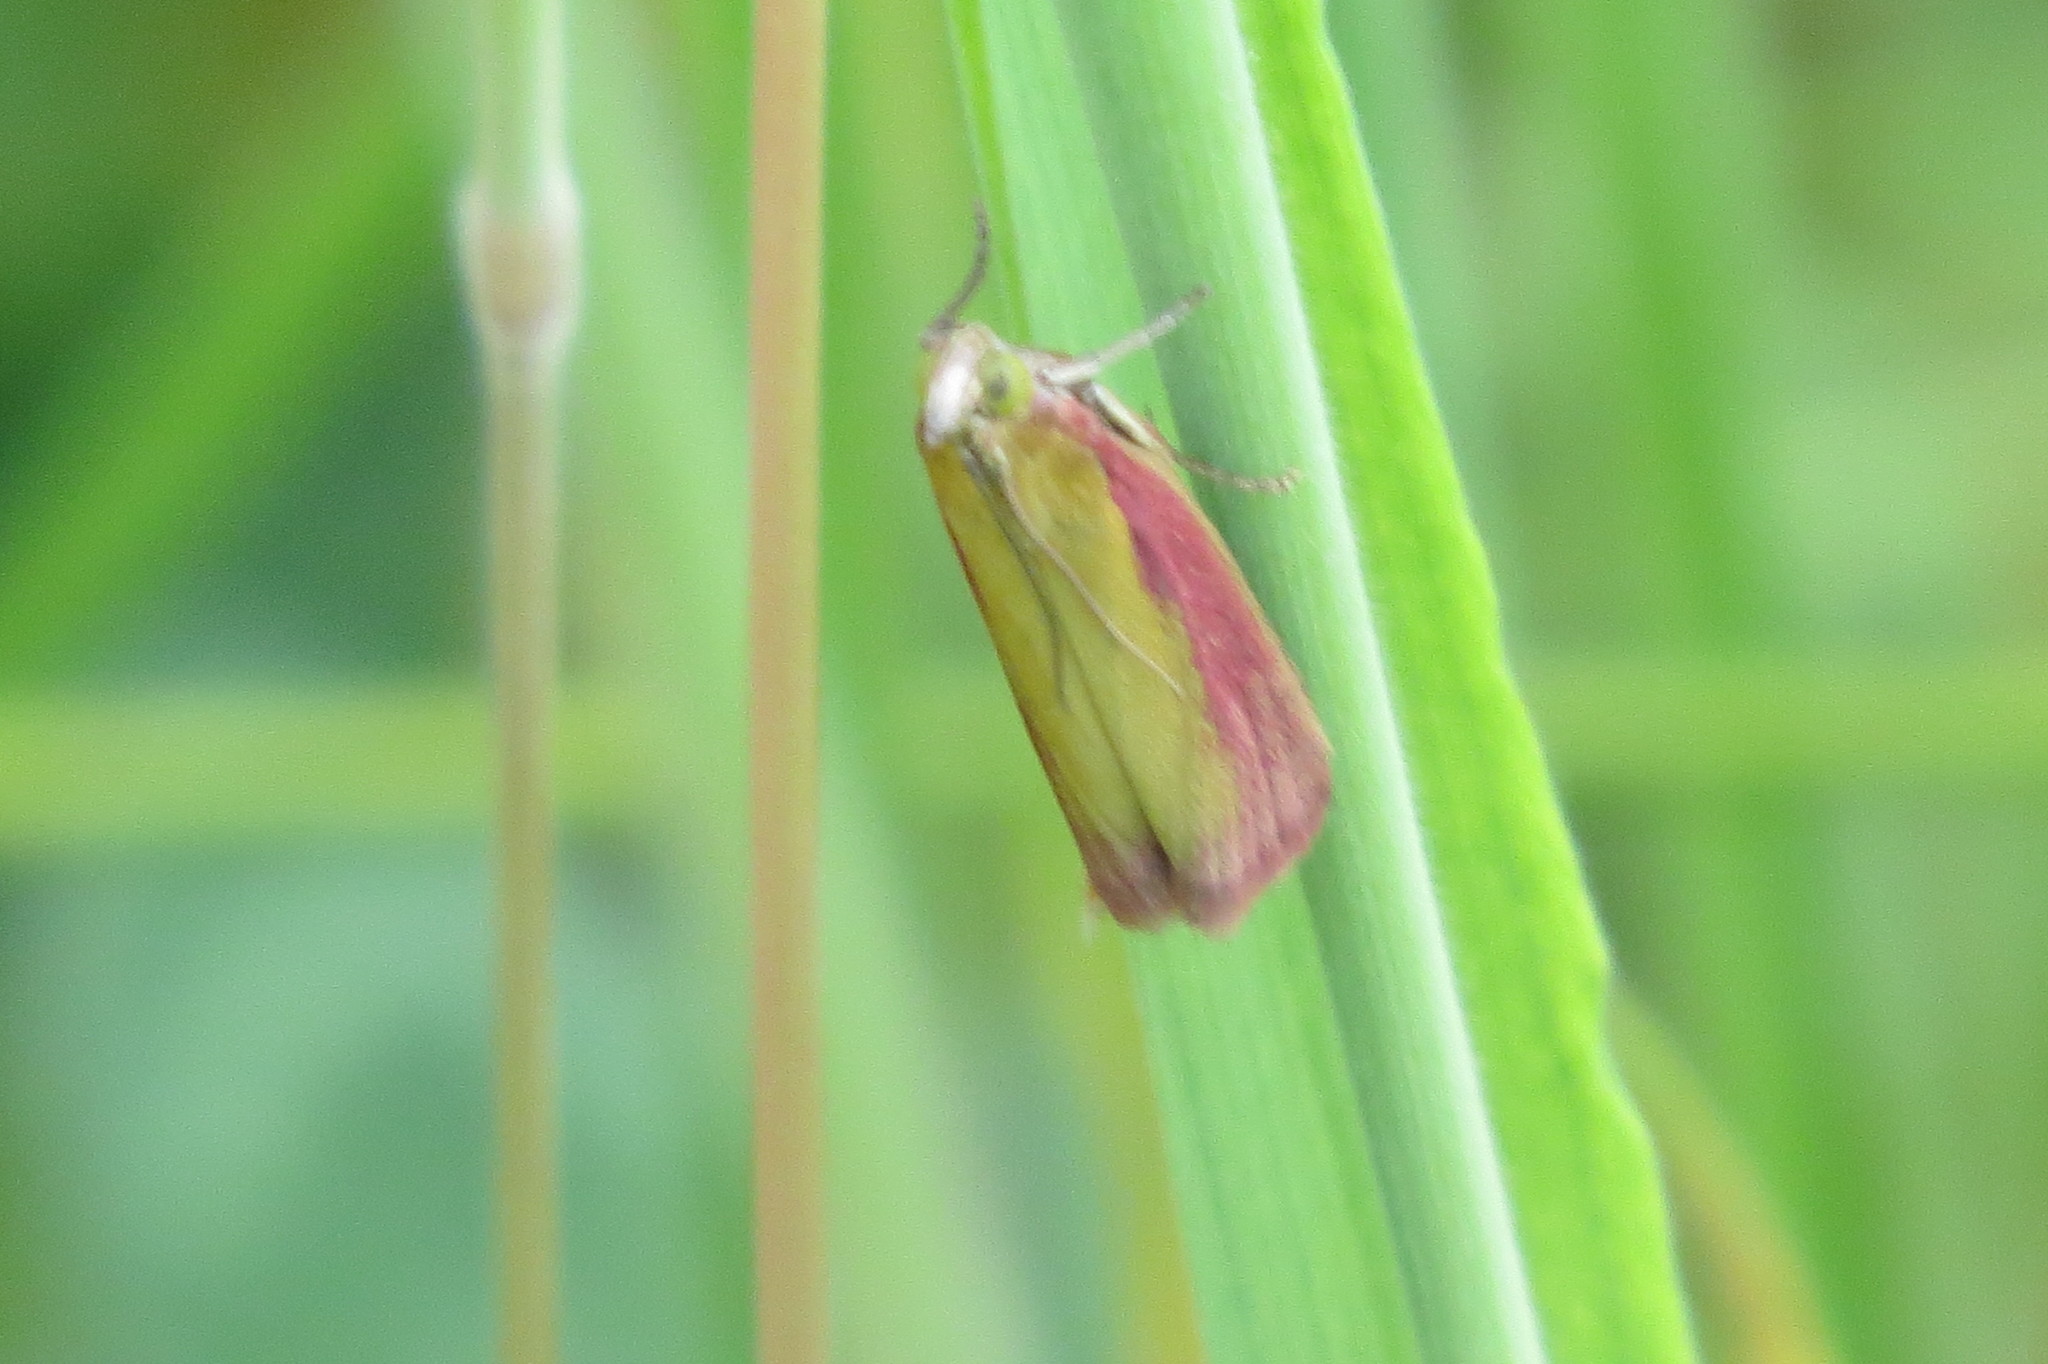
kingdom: Animalia
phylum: Arthropoda
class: Insecta
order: Lepidoptera
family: Pyralidae
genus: Oncocera
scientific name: Oncocera semirubella
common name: Rosy-striped knot-horn
